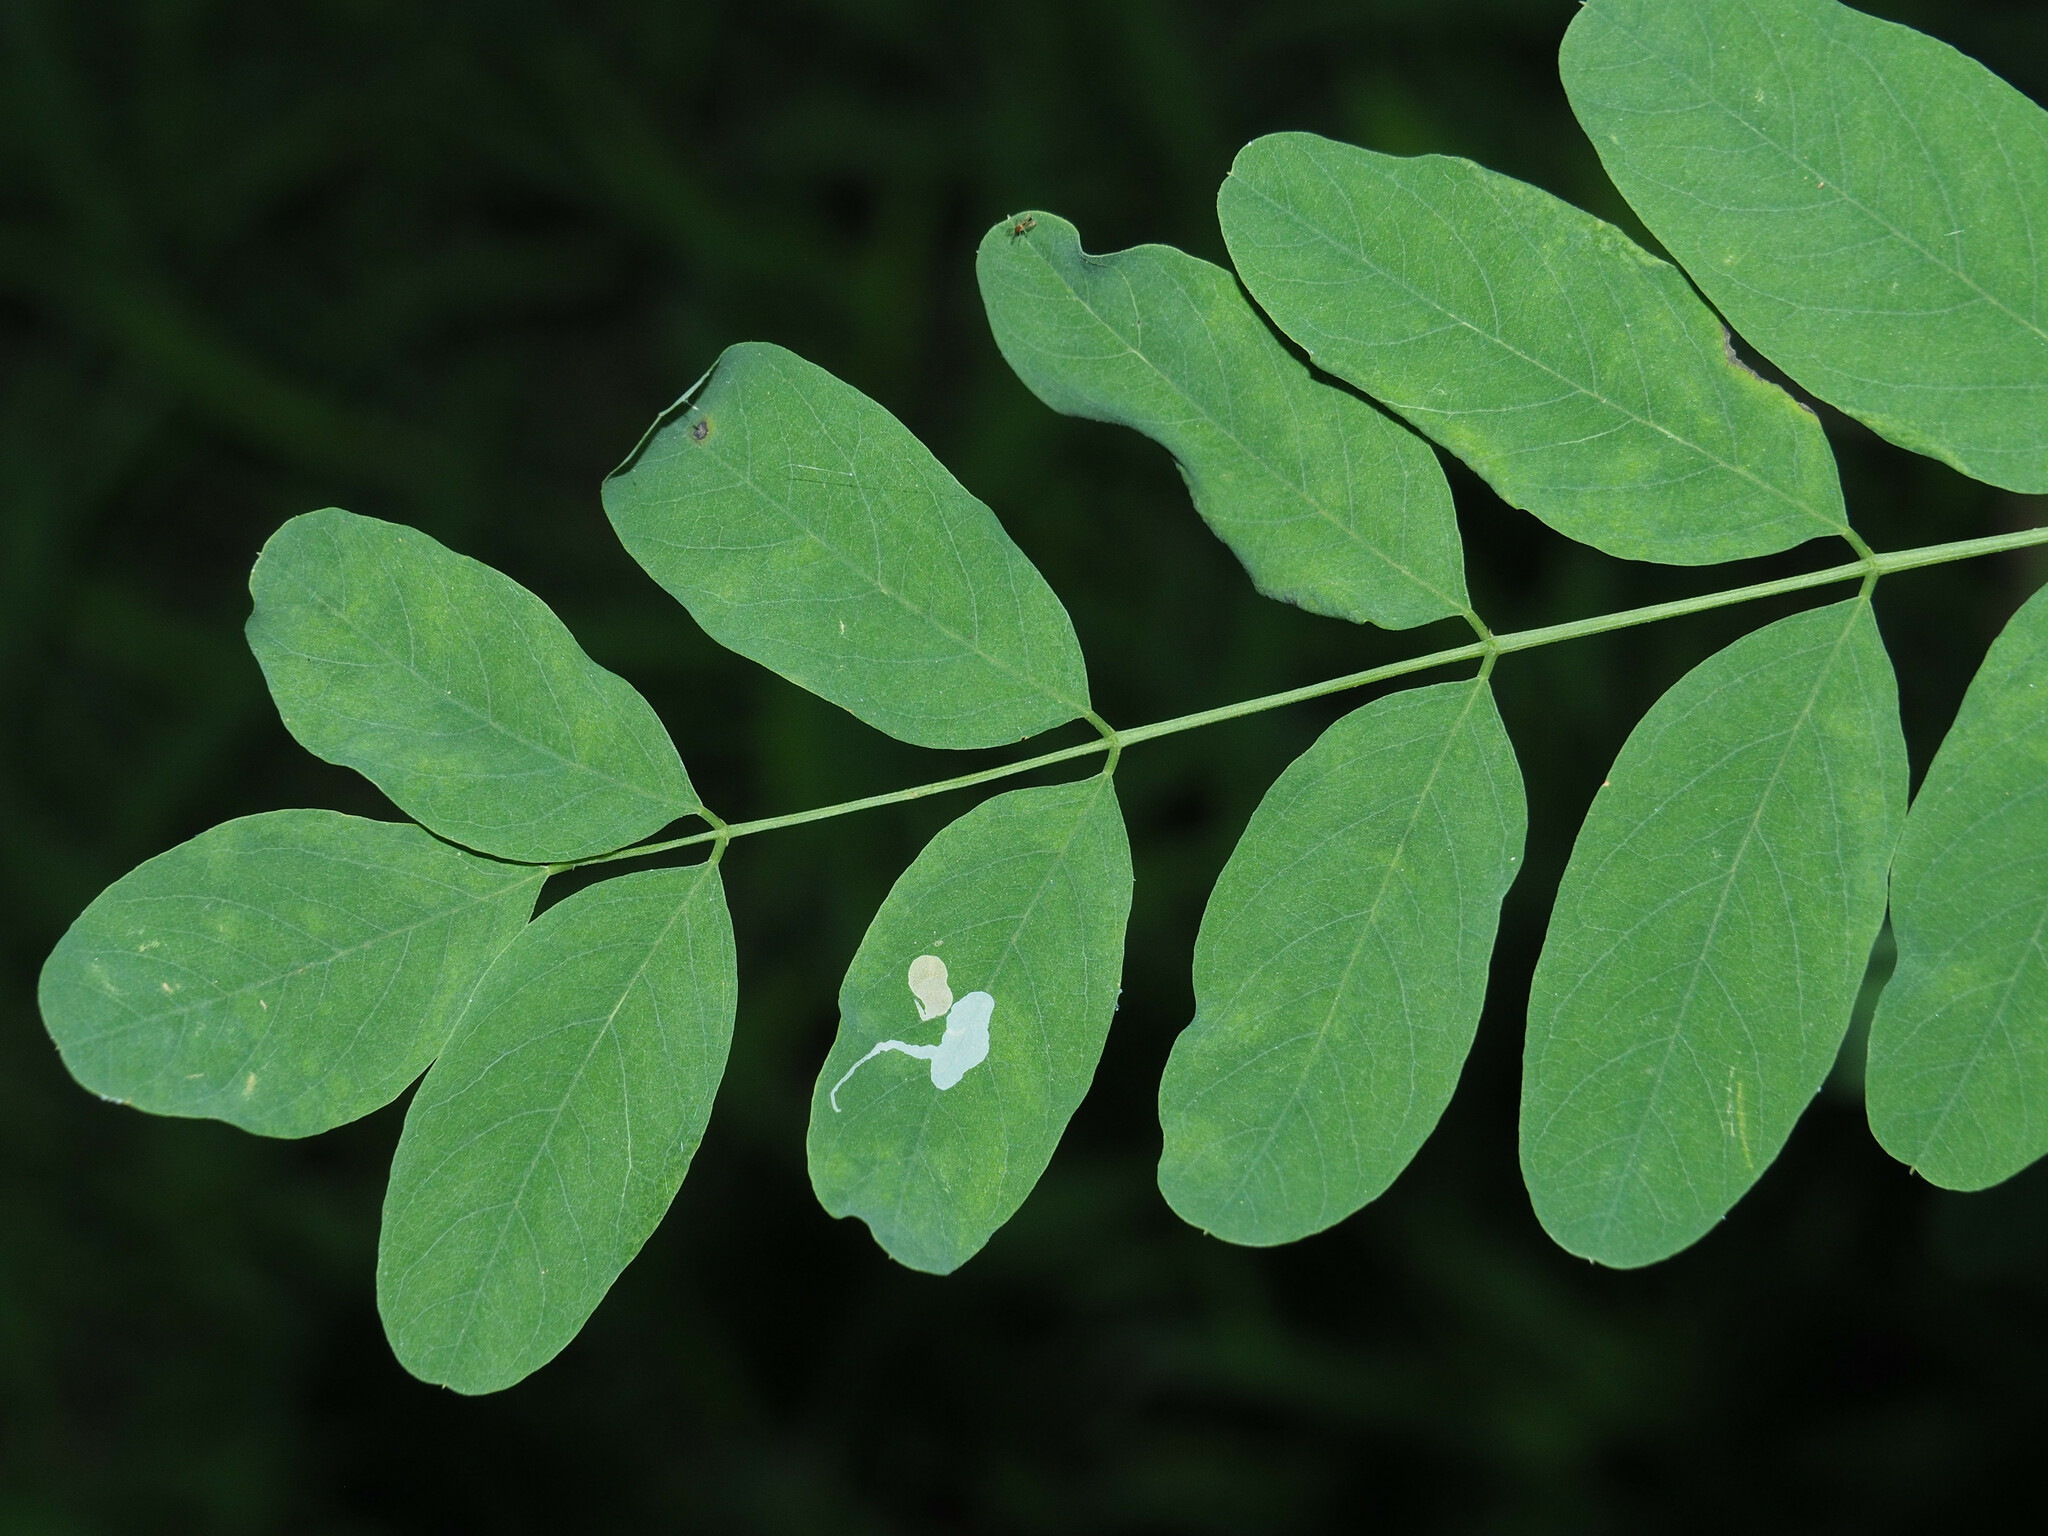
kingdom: Animalia
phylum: Arthropoda
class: Insecta
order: Lepidoptera
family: Gracillariidae
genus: Chrysaster
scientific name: Chrysaster ostensackenella
